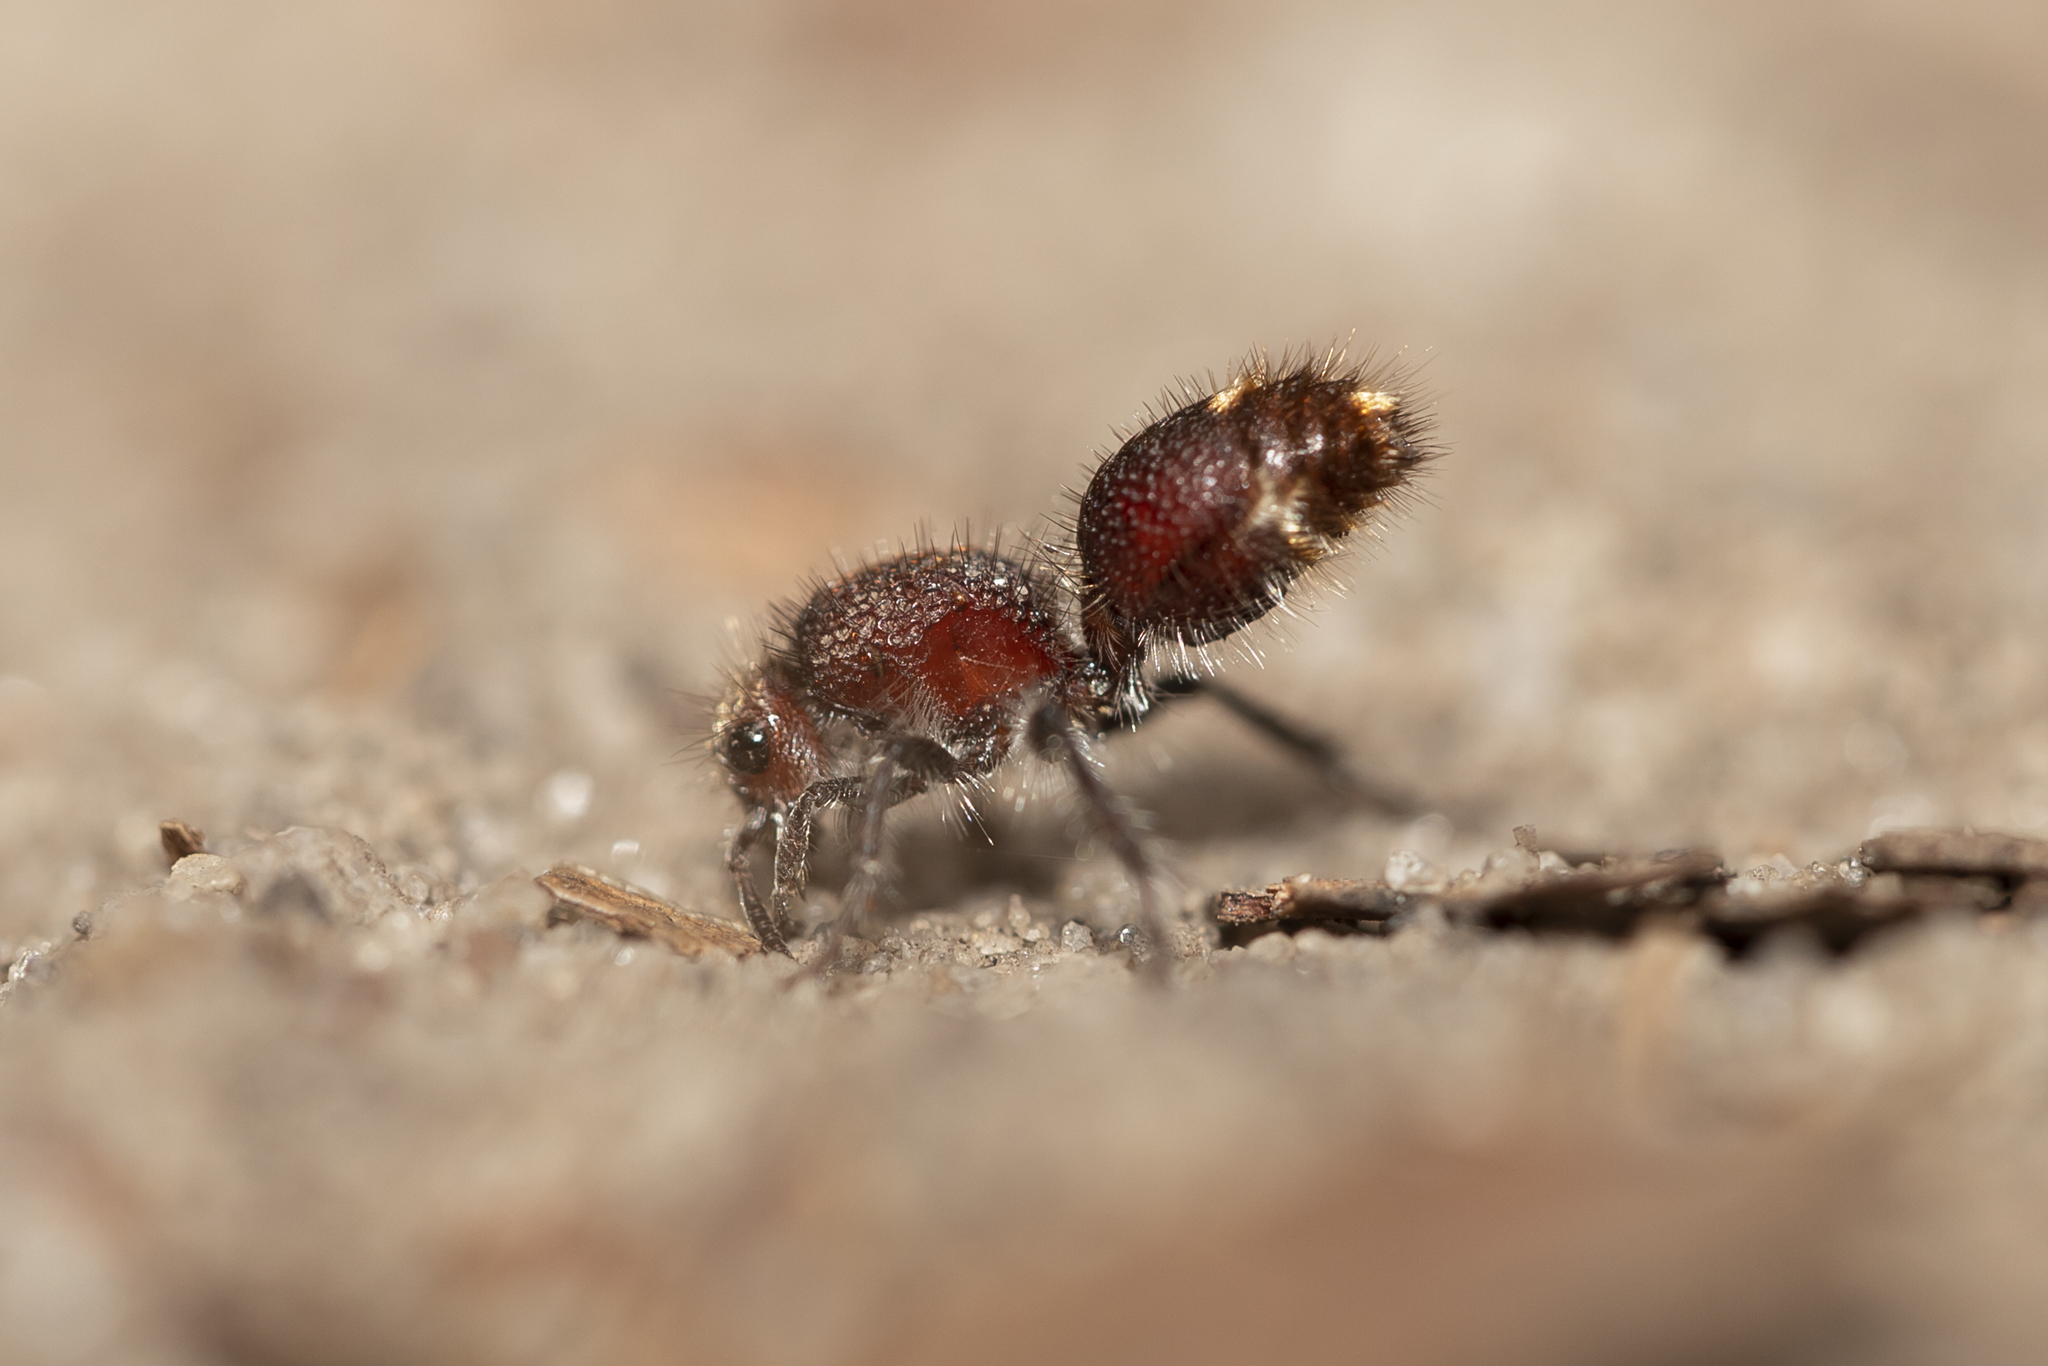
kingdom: Animalia
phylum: Arthropoda
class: Insecta
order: Hymenoptera
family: Mutillidae
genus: Ephutomorpha
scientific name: Ephutomorpha
